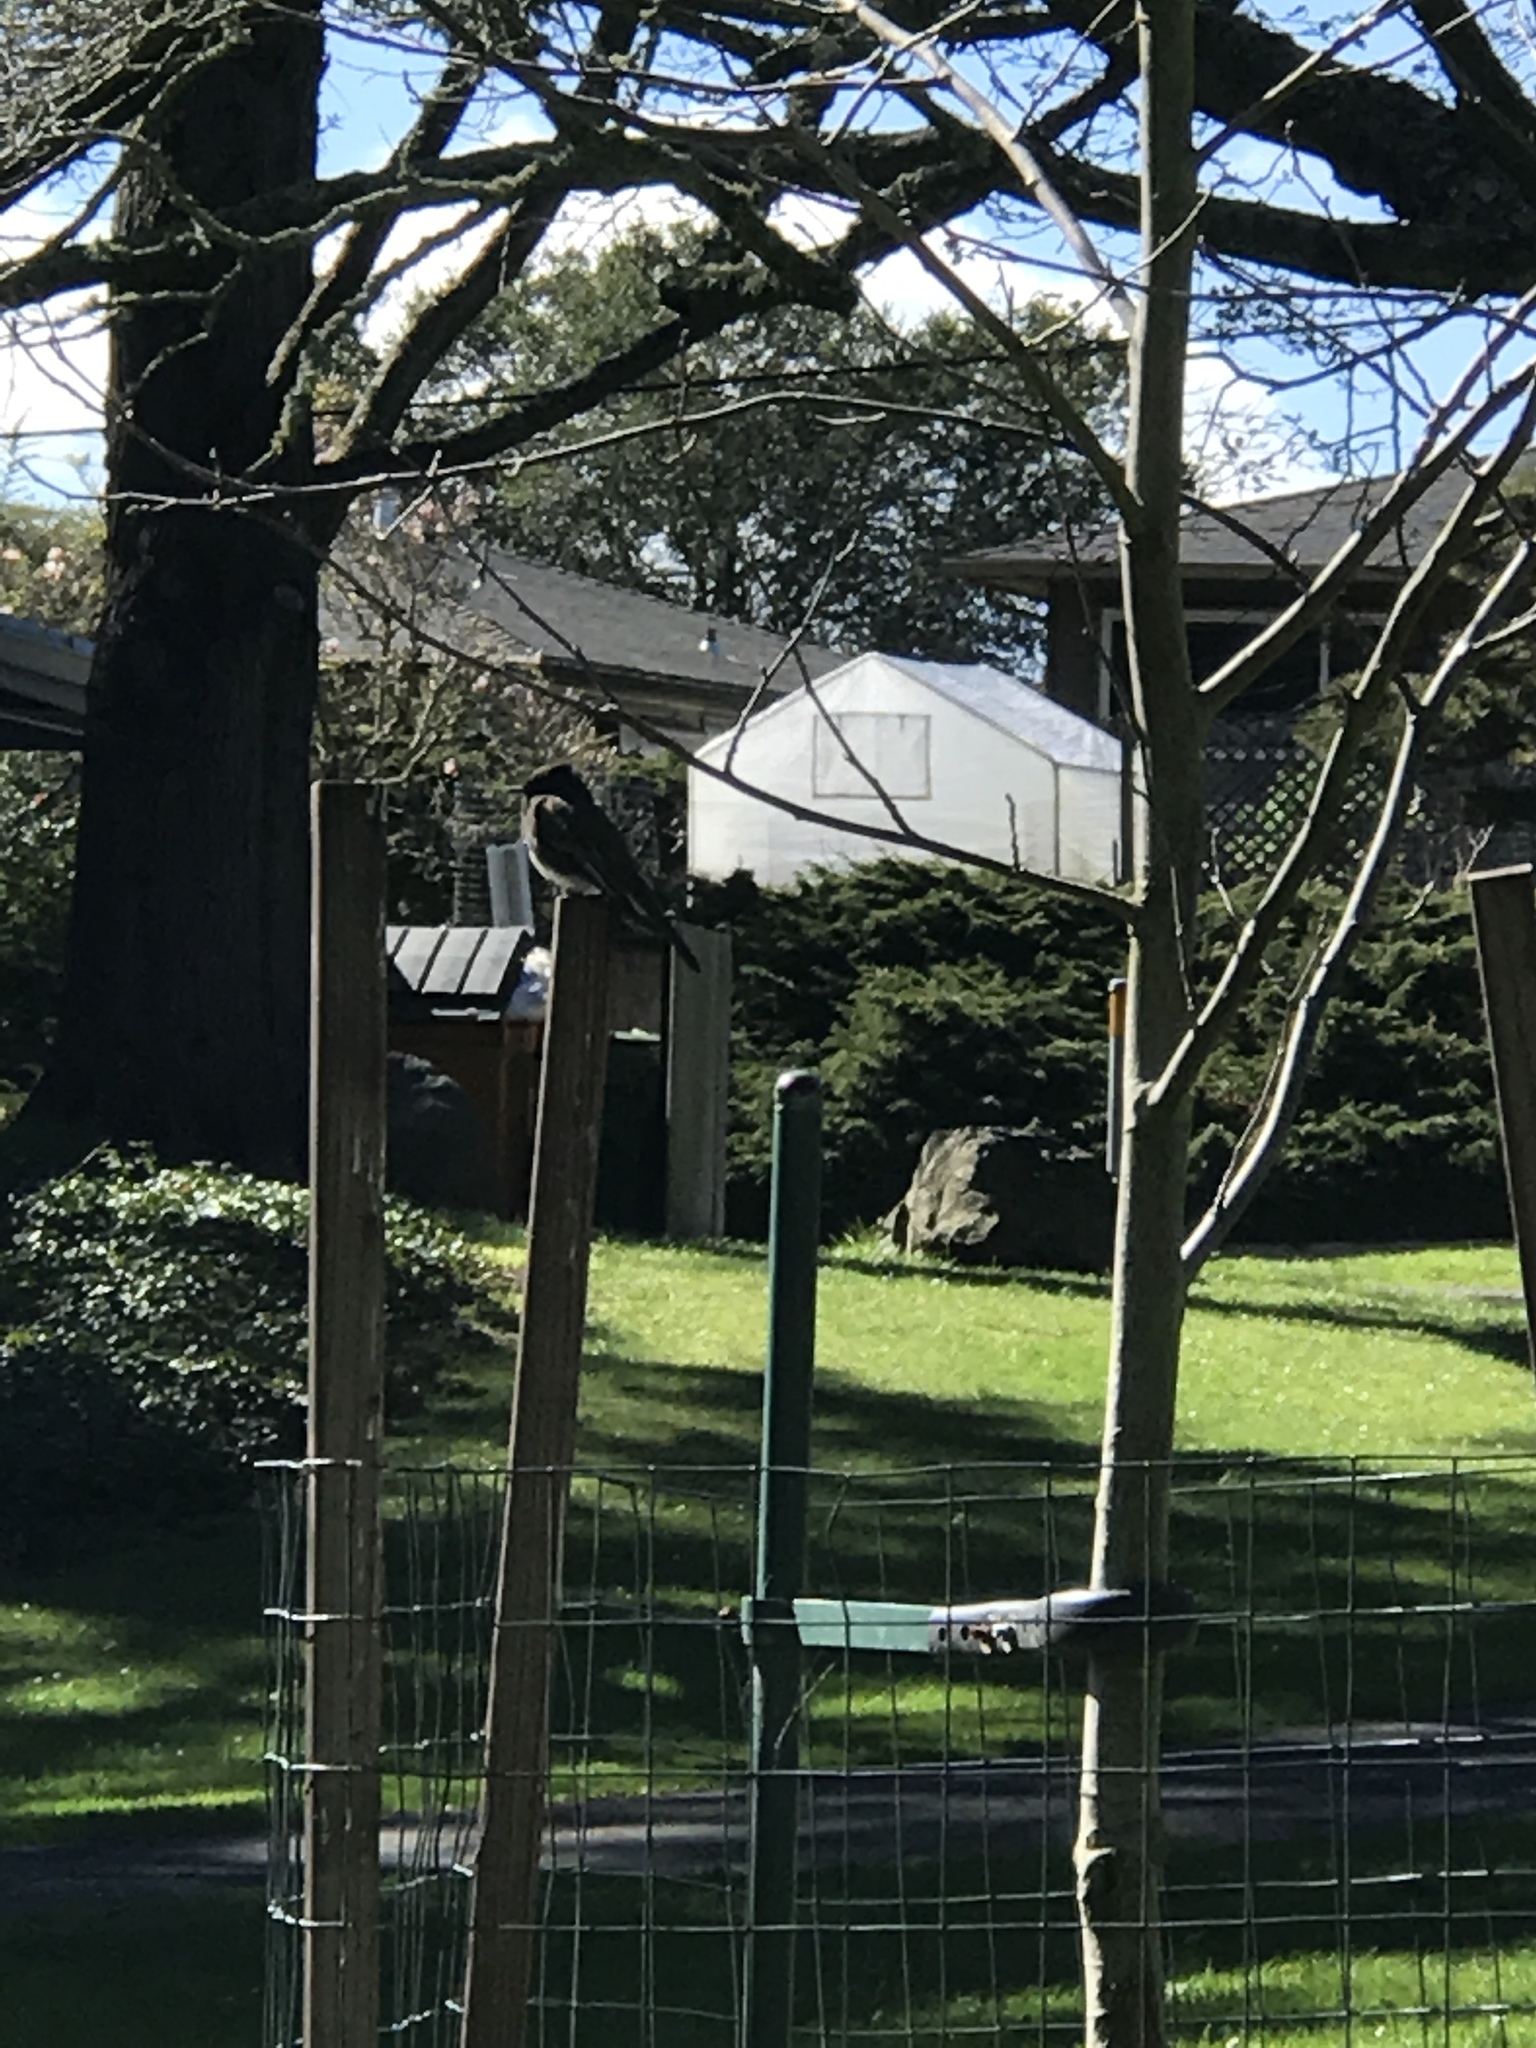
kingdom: Animalia
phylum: Chordata
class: Aves
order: Passeriformes
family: Tyrannidae
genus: Sayornis
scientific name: Sayornis nigricans
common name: Black phoebe
